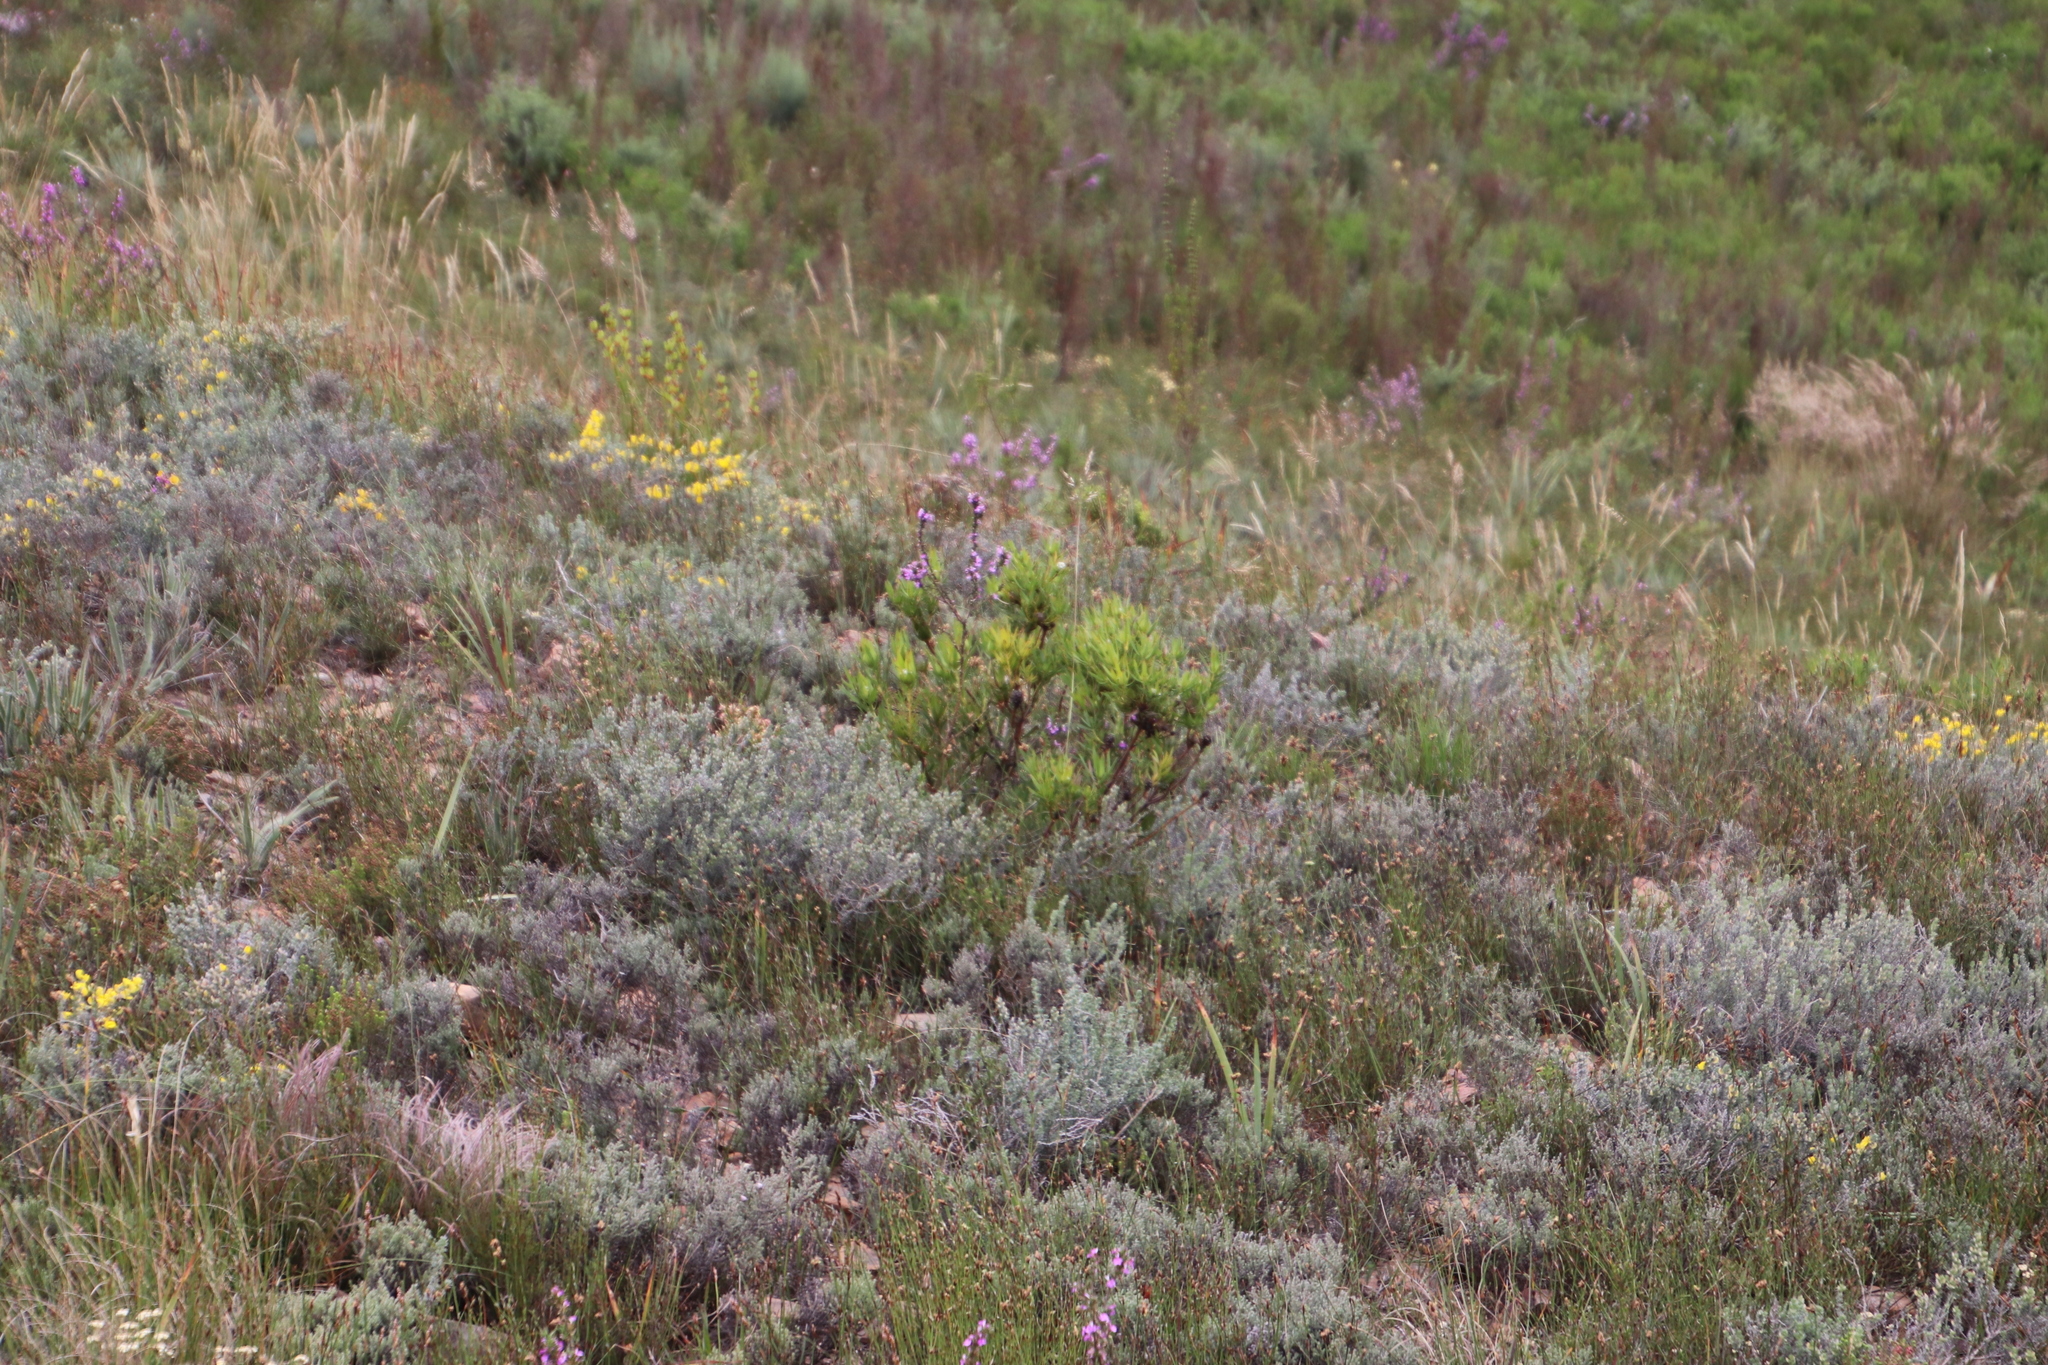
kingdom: Plantae
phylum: Tracheophyta
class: Magnoliopsida
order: Proteales
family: Proteaceae
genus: Leucadendron
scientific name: Leucadendron salignum
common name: Common sunshine conebush
